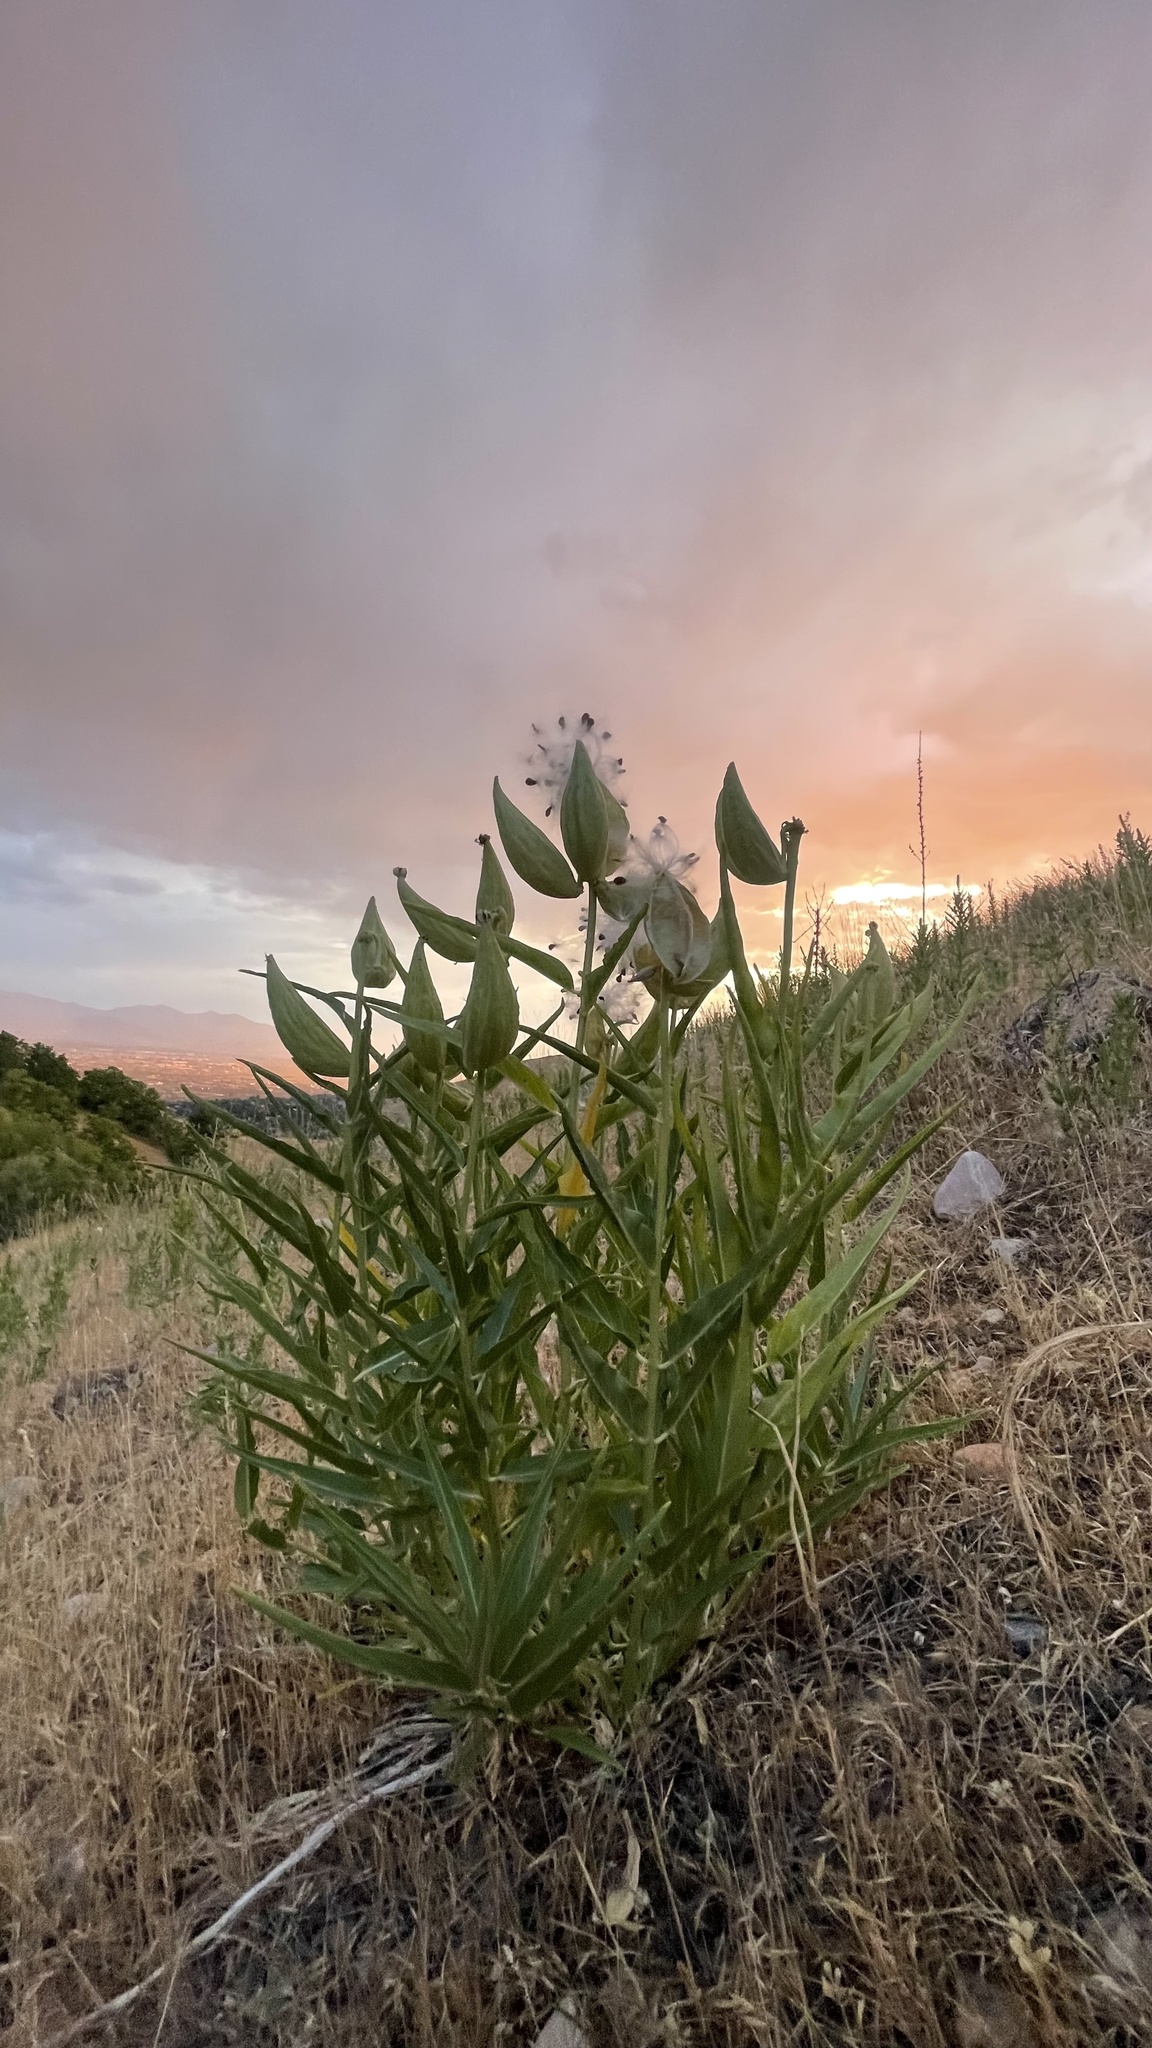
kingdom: Plantae
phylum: Tracheophyta
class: Magnoliopsida
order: Gentianales
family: Apocynaceae
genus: Asclepias
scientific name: Asclepias asperula
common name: Antelope horns
